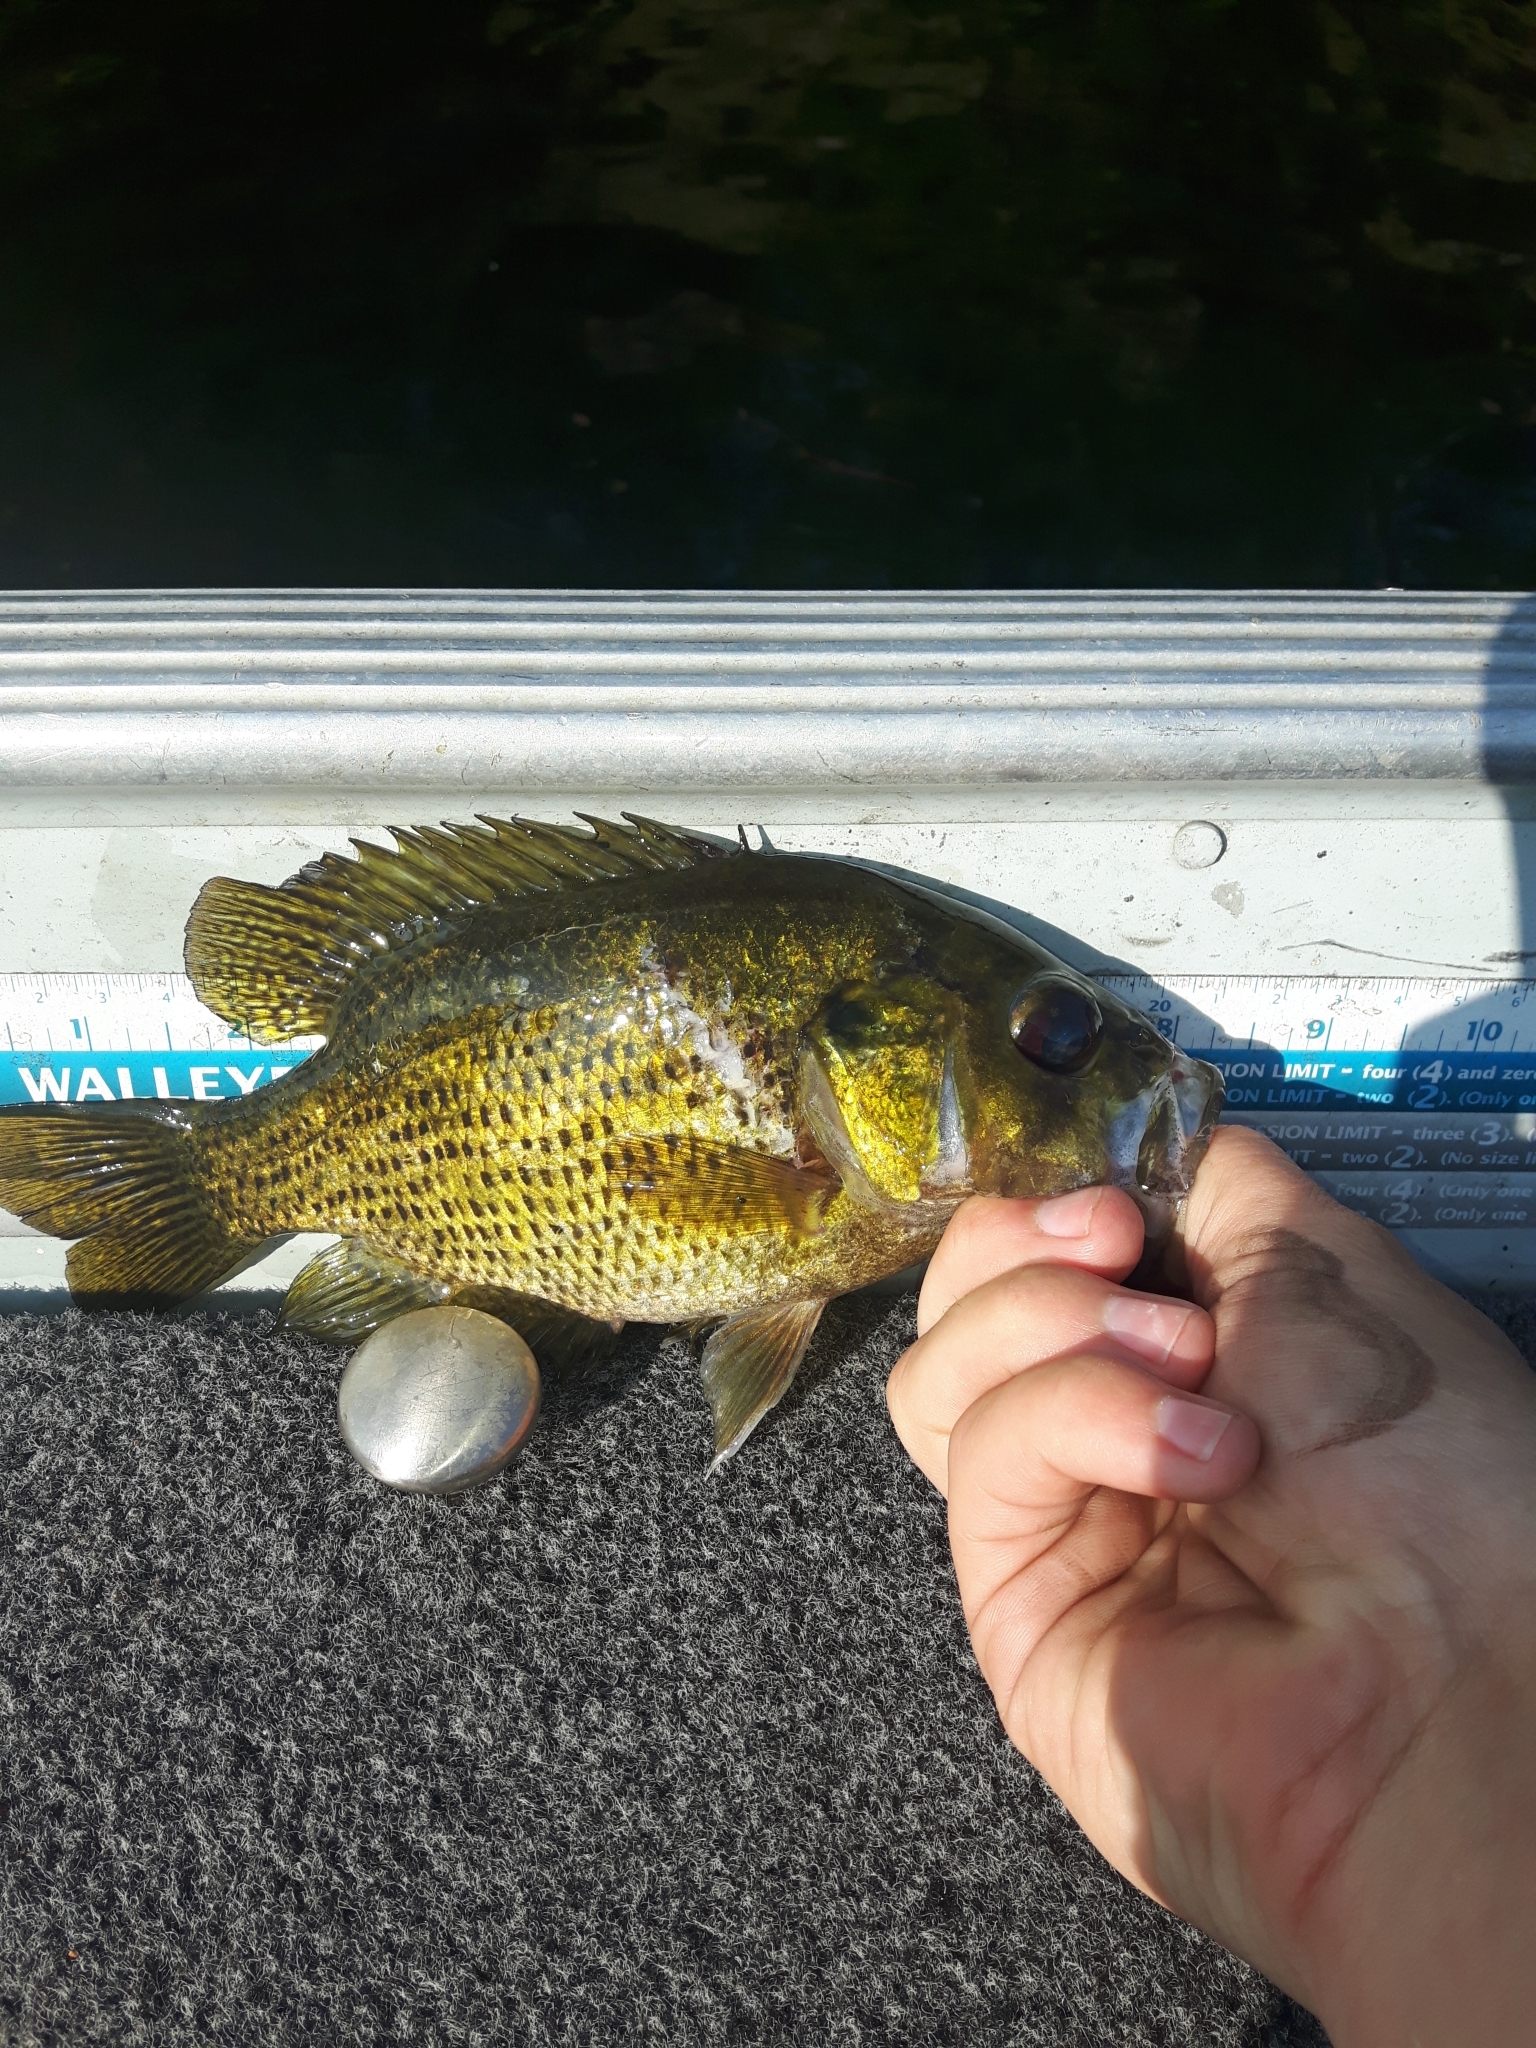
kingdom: Animalia
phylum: Chordata
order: Perciformes
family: Centrarchidae
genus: Ambloplites
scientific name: Ambloplites rupestris
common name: Rock bass
